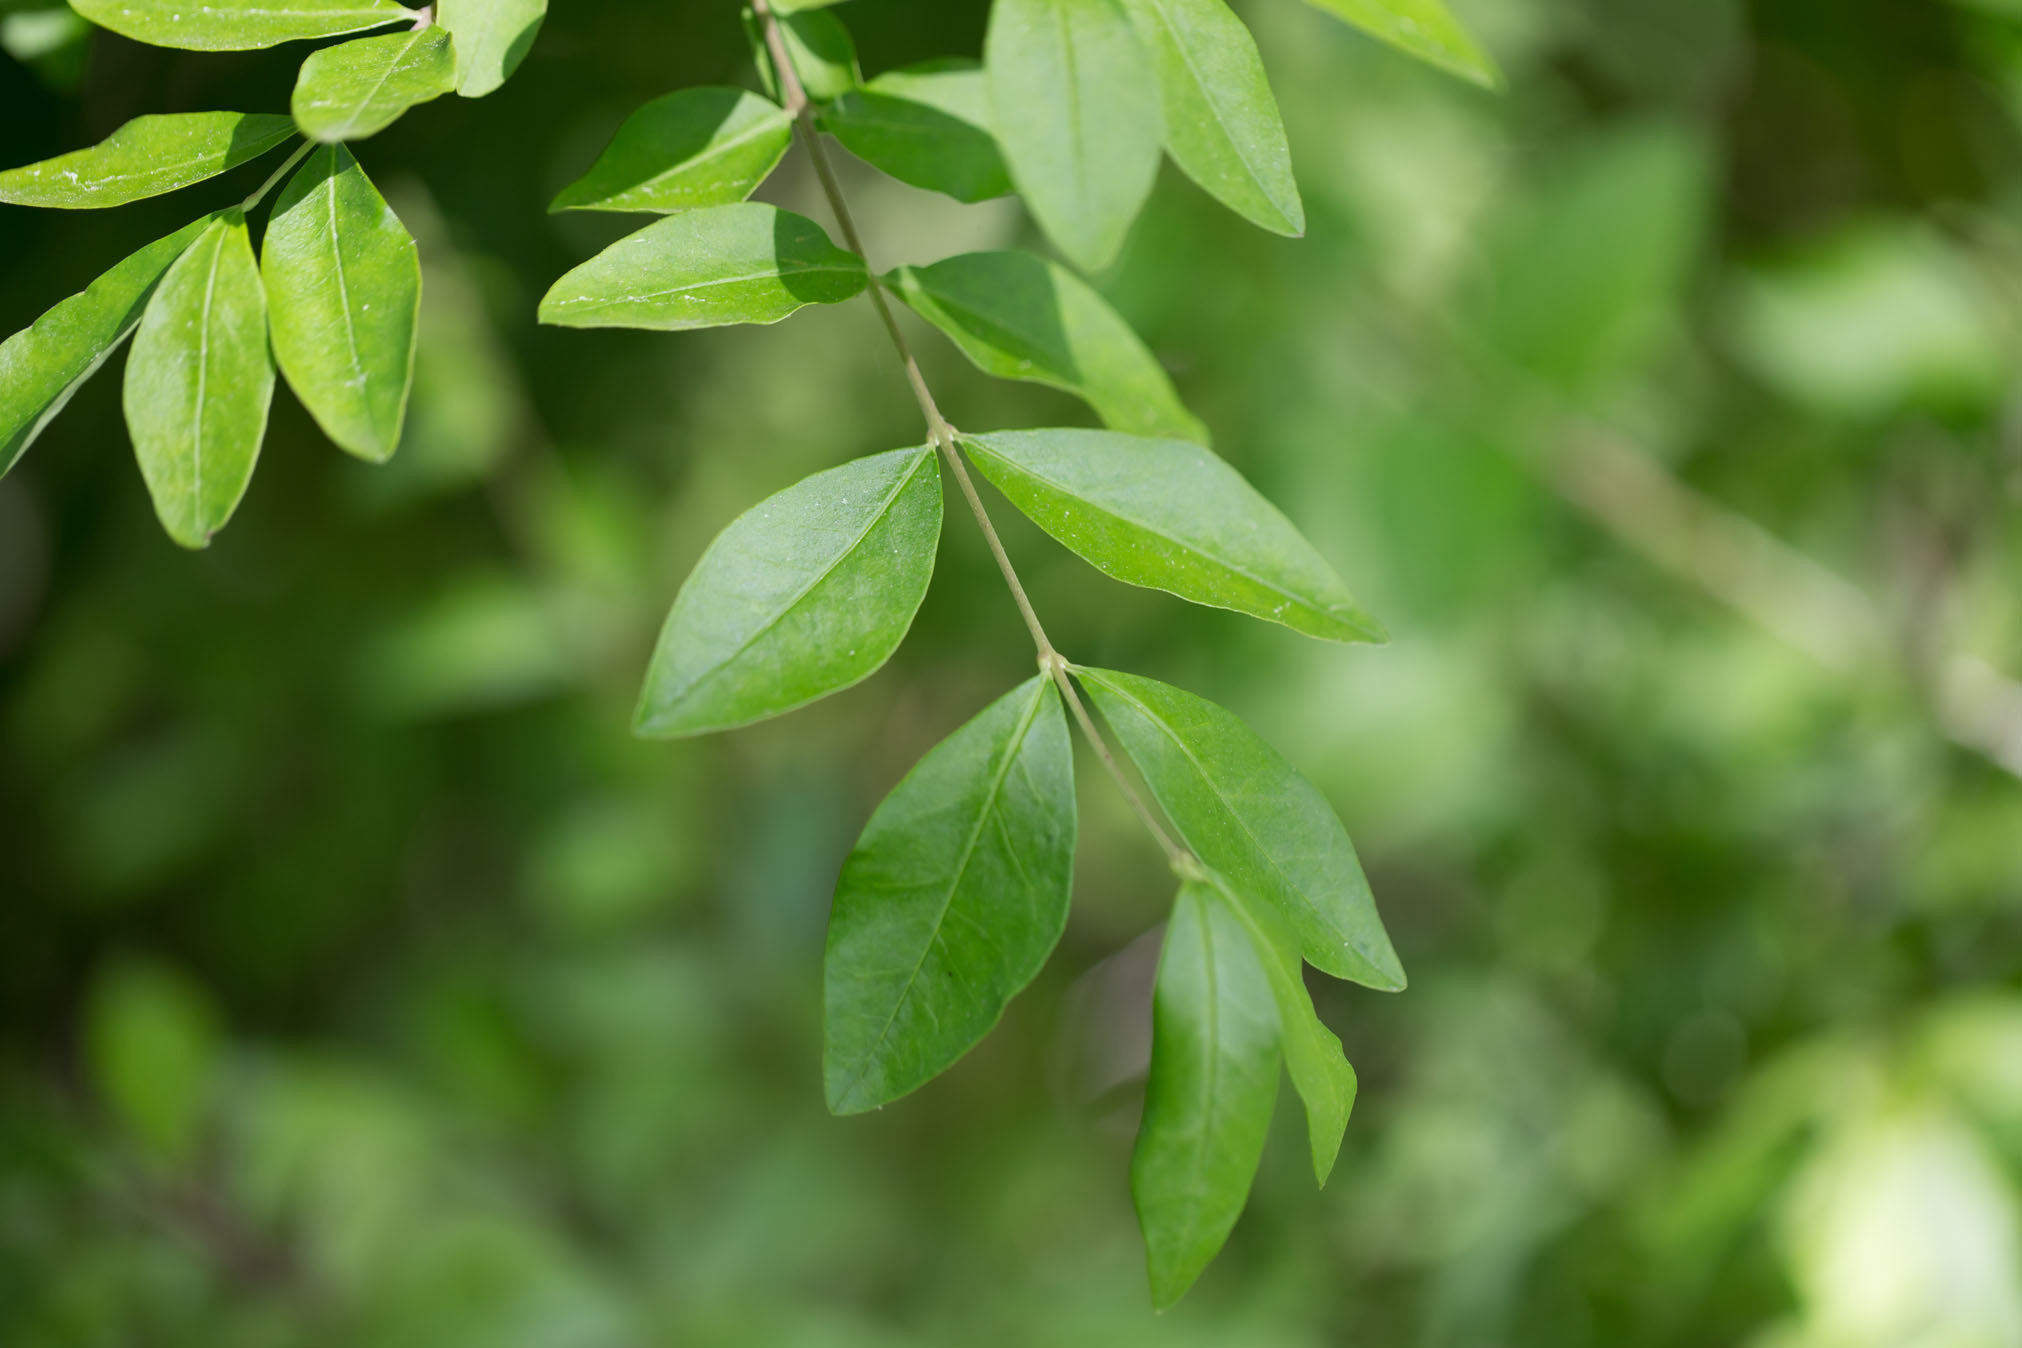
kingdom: Plantae
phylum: Tracheophyta
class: Magnoliopsida
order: Lamiales
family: Oleaceae
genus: Ligustrum
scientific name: Ligustrum obtusifolium
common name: Border privet
